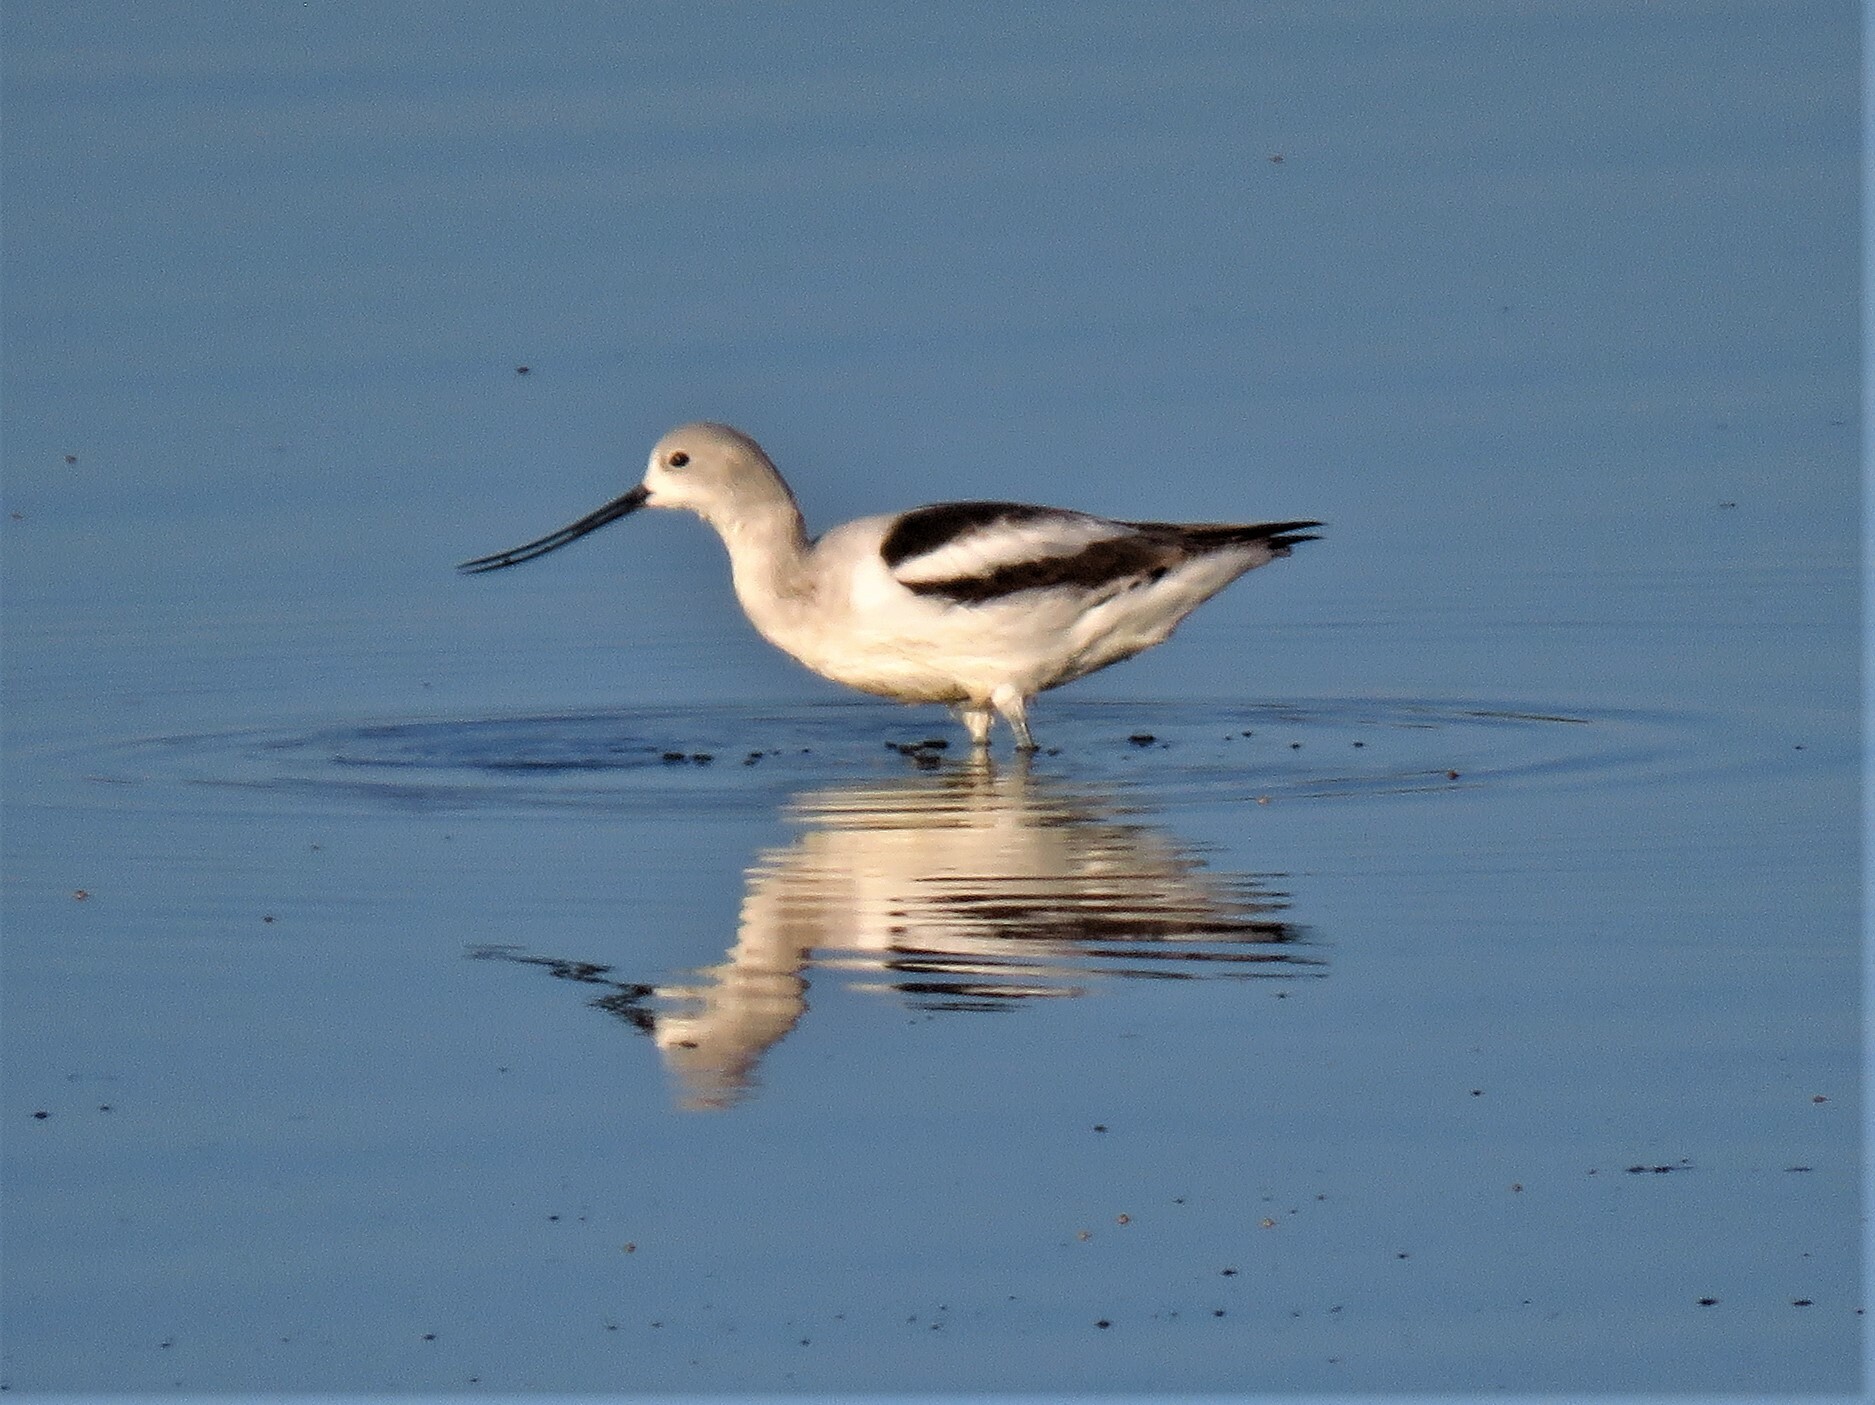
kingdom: Animalia
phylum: Chordata
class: Aves
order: Charadriiformes
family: Recurvirostridae
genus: Recurvirostra
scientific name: Recurvirostra americana
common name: American avocet
